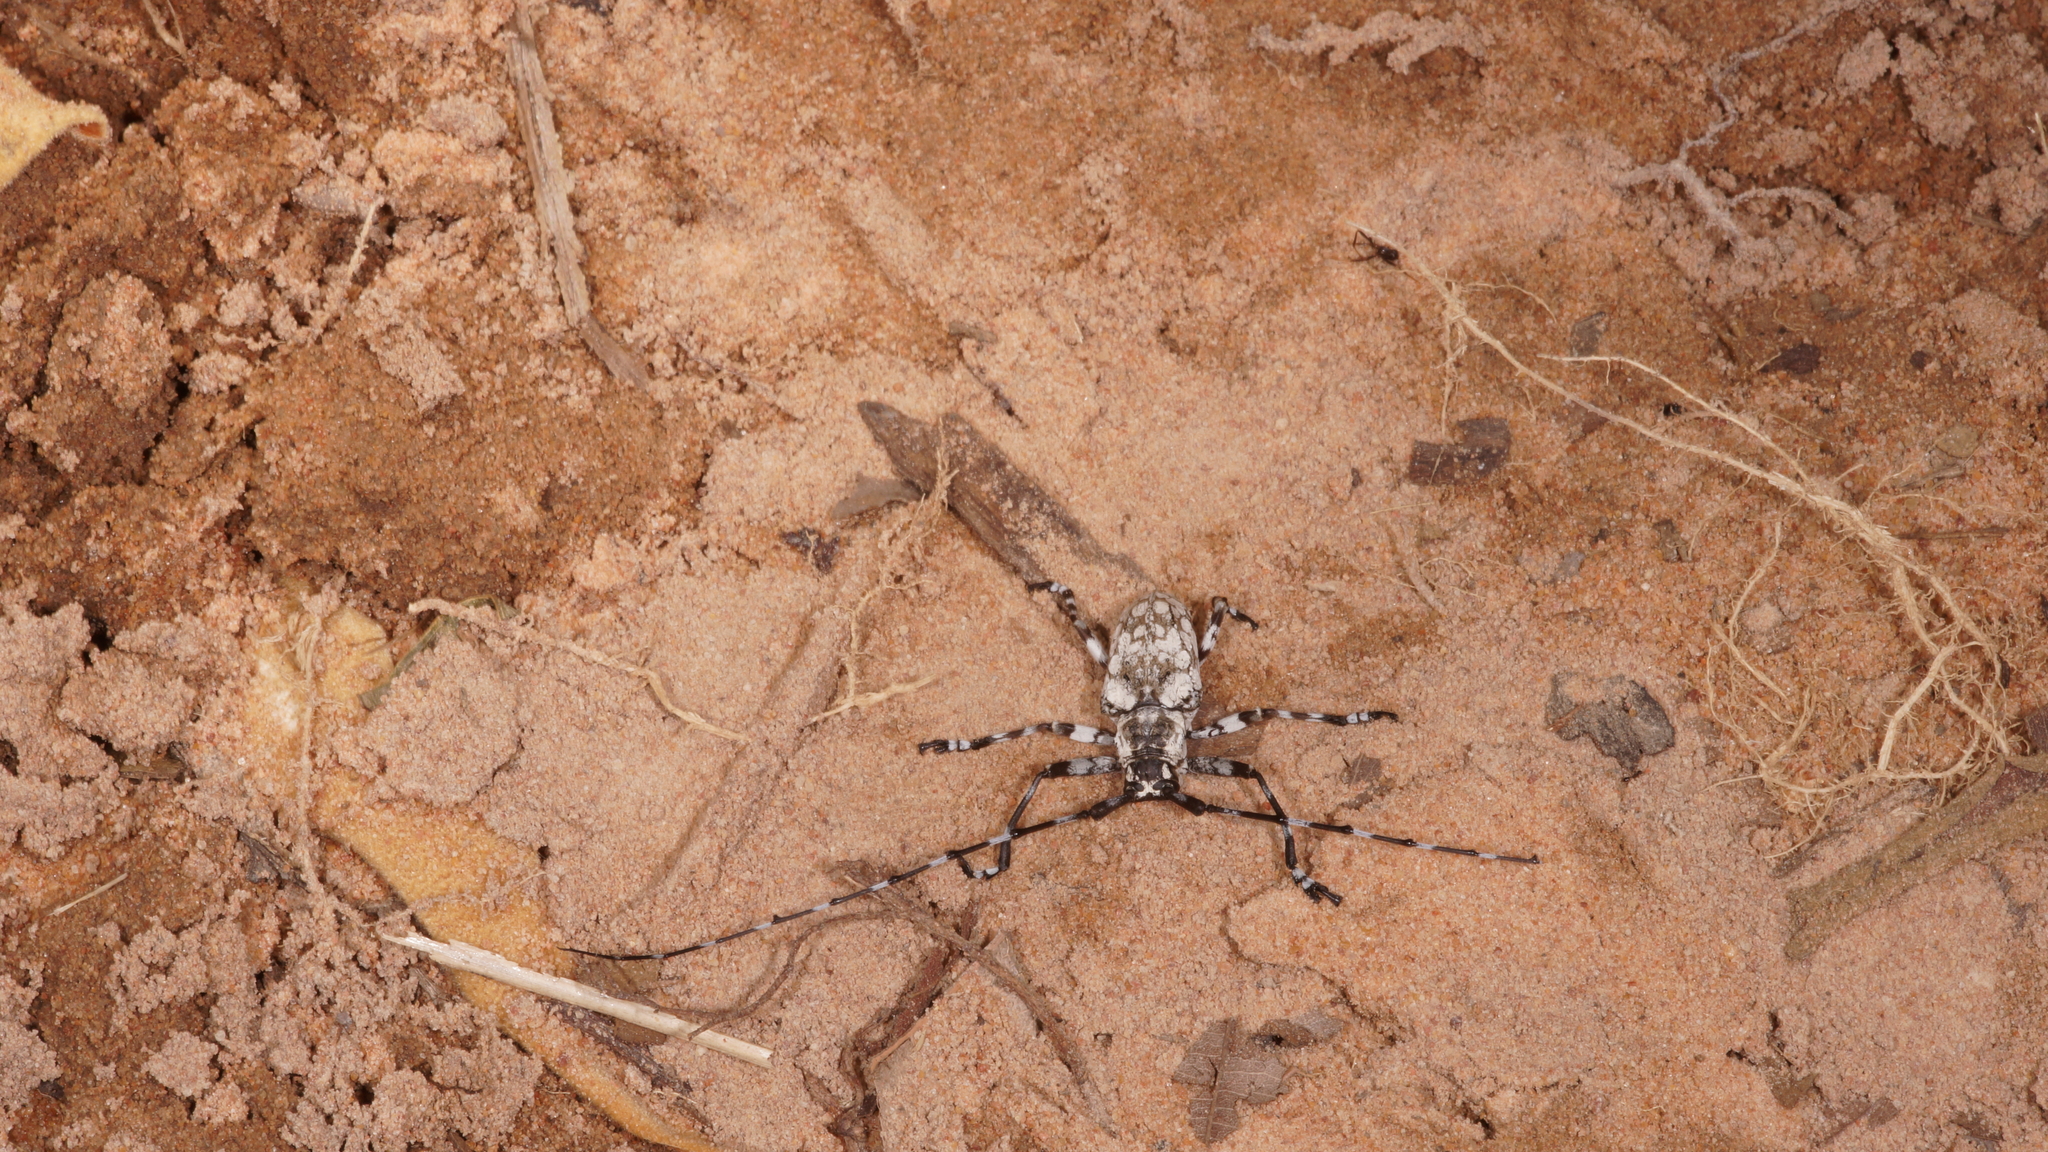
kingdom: Animalia
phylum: Arthropoda
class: Insecta
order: Coleoptera
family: Cerambycidae
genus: Palimna
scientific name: Palimna annulata
